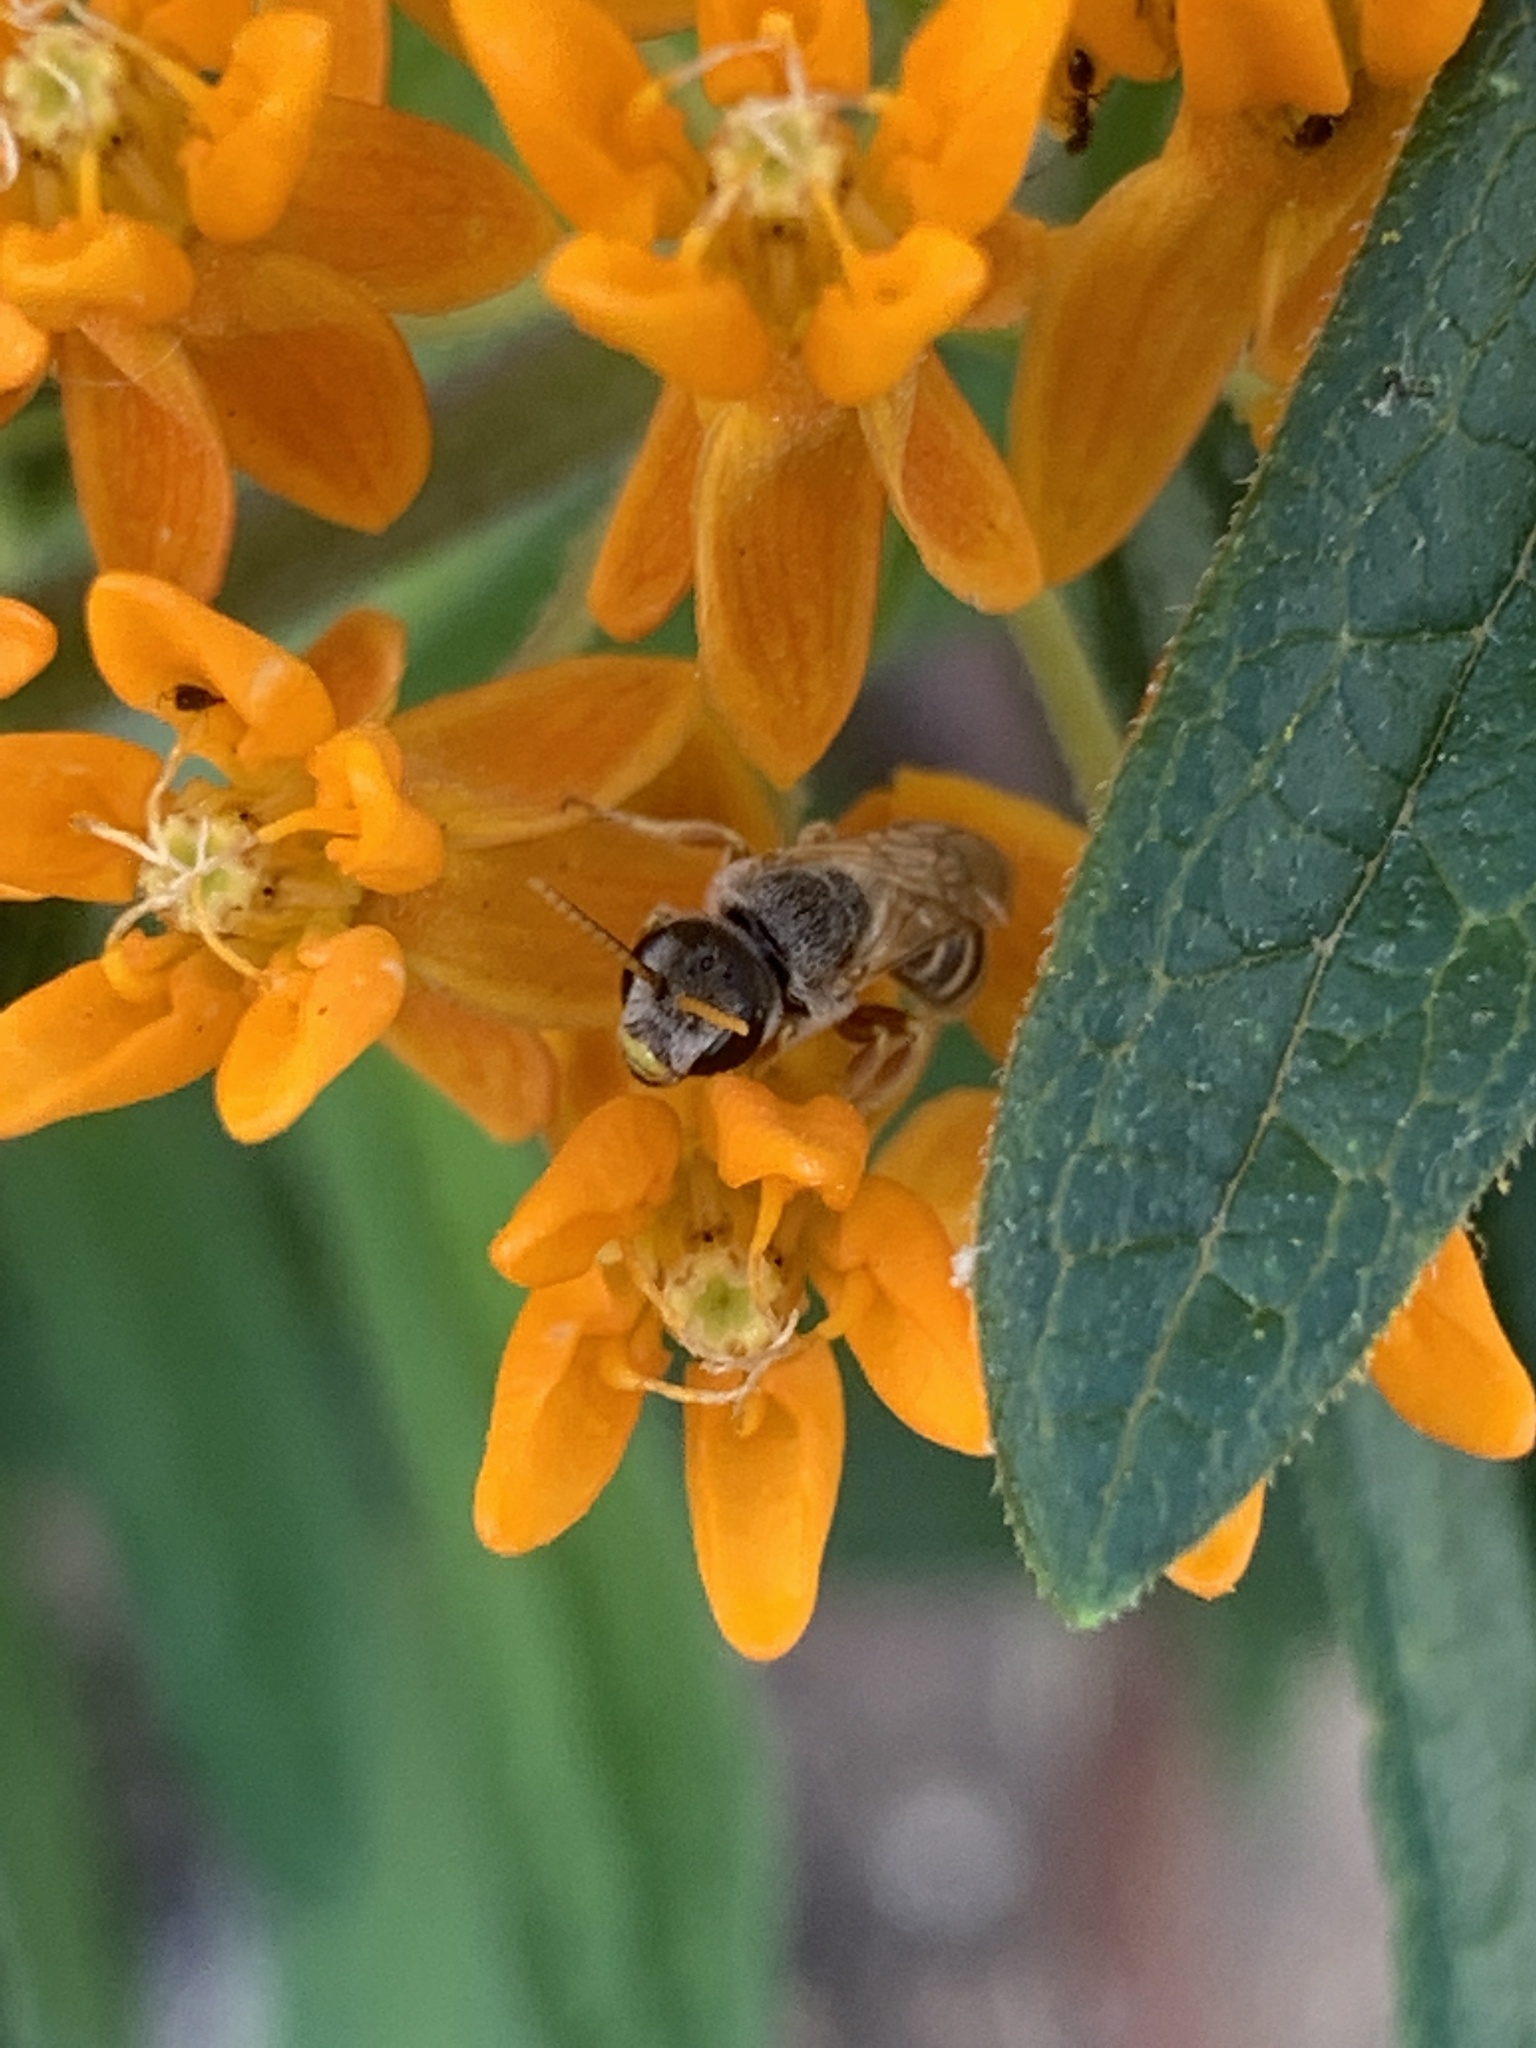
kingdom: Animalia
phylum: Arthropoda
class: Insecta
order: Hymenoptera
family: Halictidae
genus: Halictus
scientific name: Halictus ligatus
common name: Ligated furrow bee
